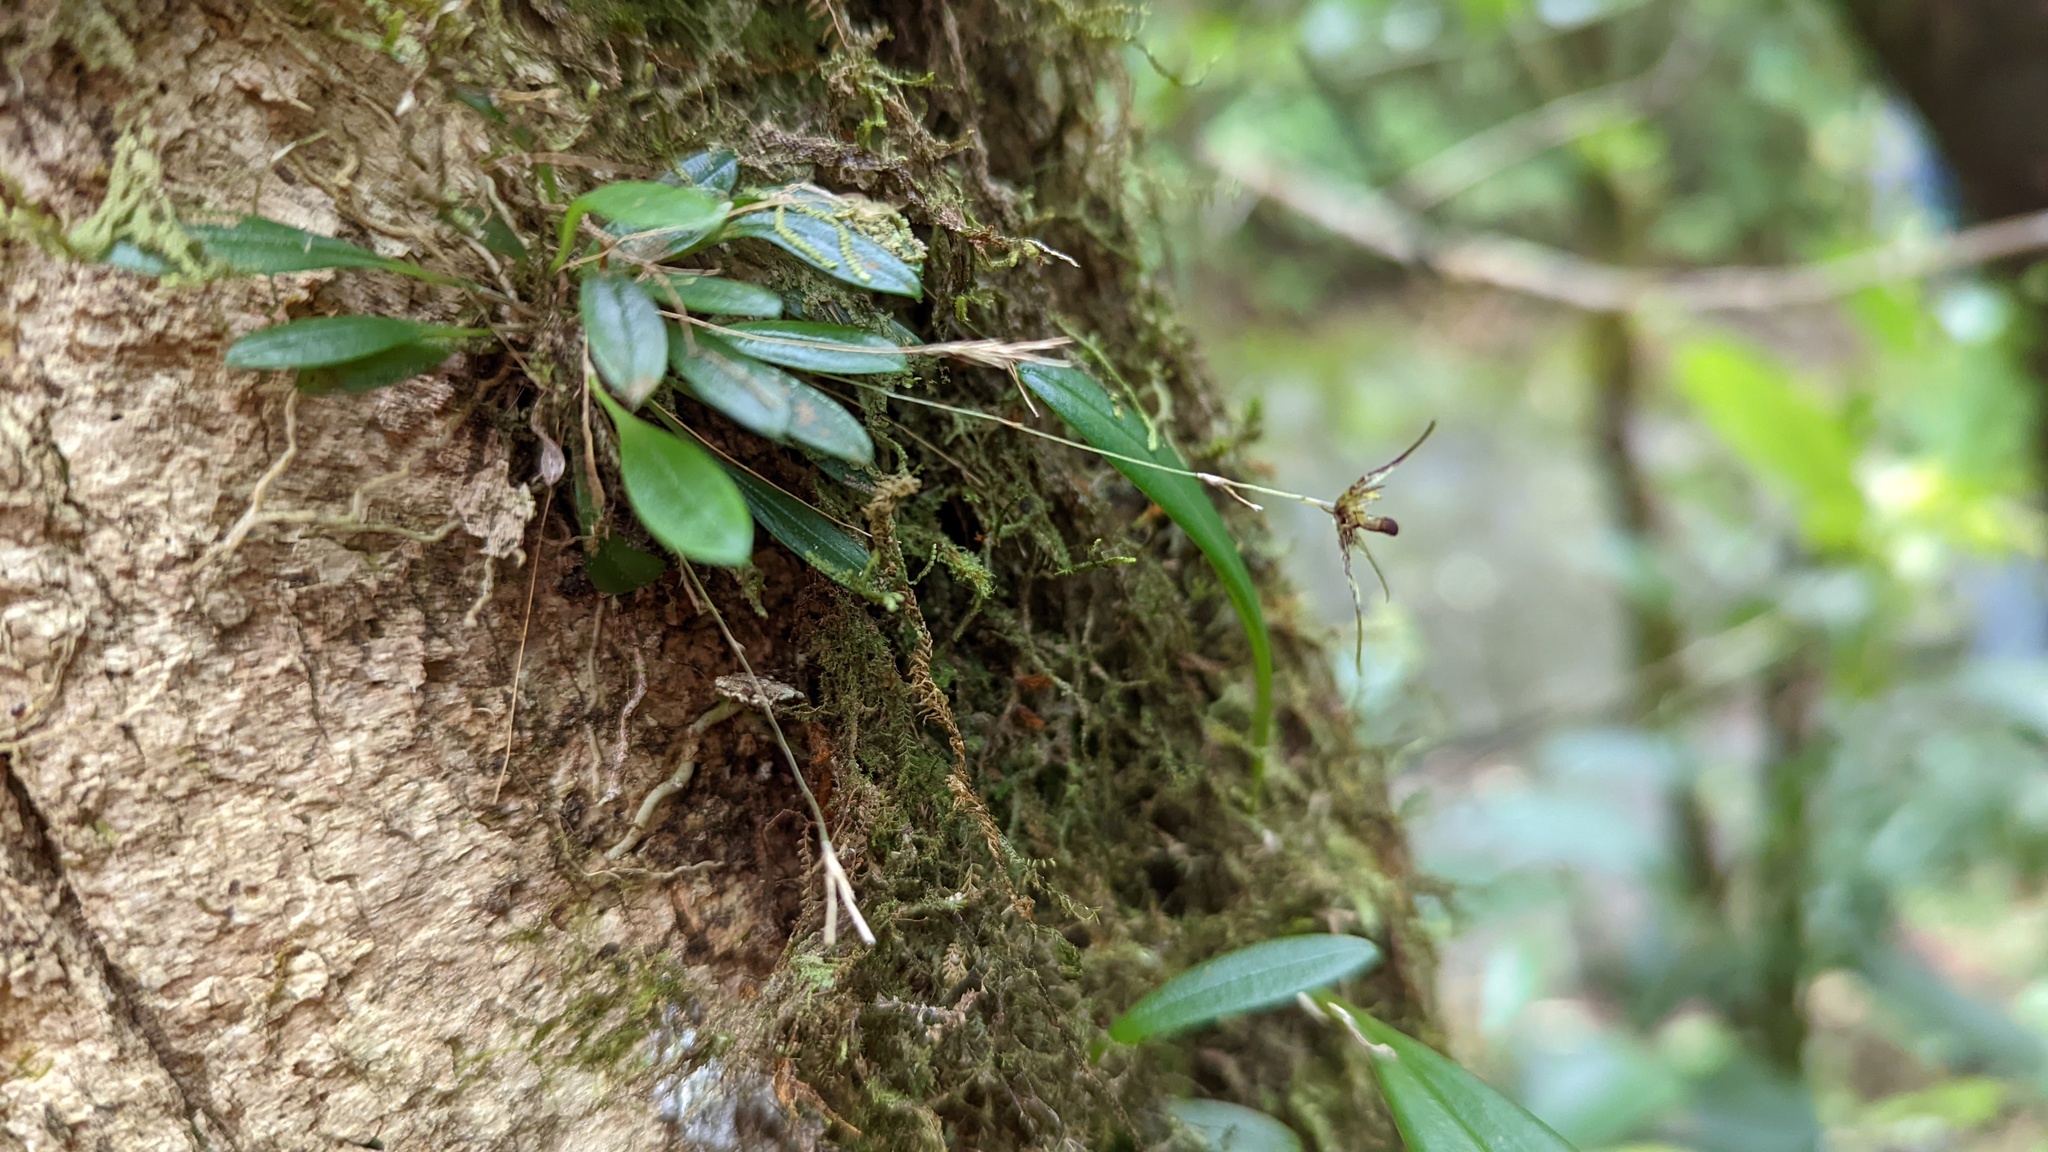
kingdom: Plantae
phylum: Tracheophyta
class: Liliopsida
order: Asparagales
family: Orchidaceae
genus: Muscarella
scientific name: Muscarella strumosa
